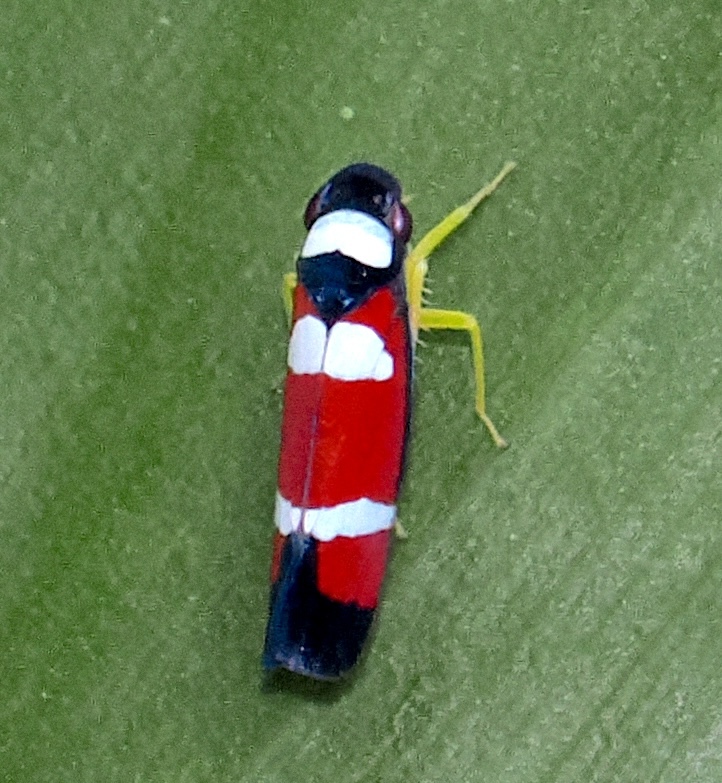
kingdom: Animalia
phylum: Arthropoda
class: Insecta
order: Hemiptera
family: Cicadellidae
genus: Erythrogonia
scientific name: Erythrogonia phoenicea
